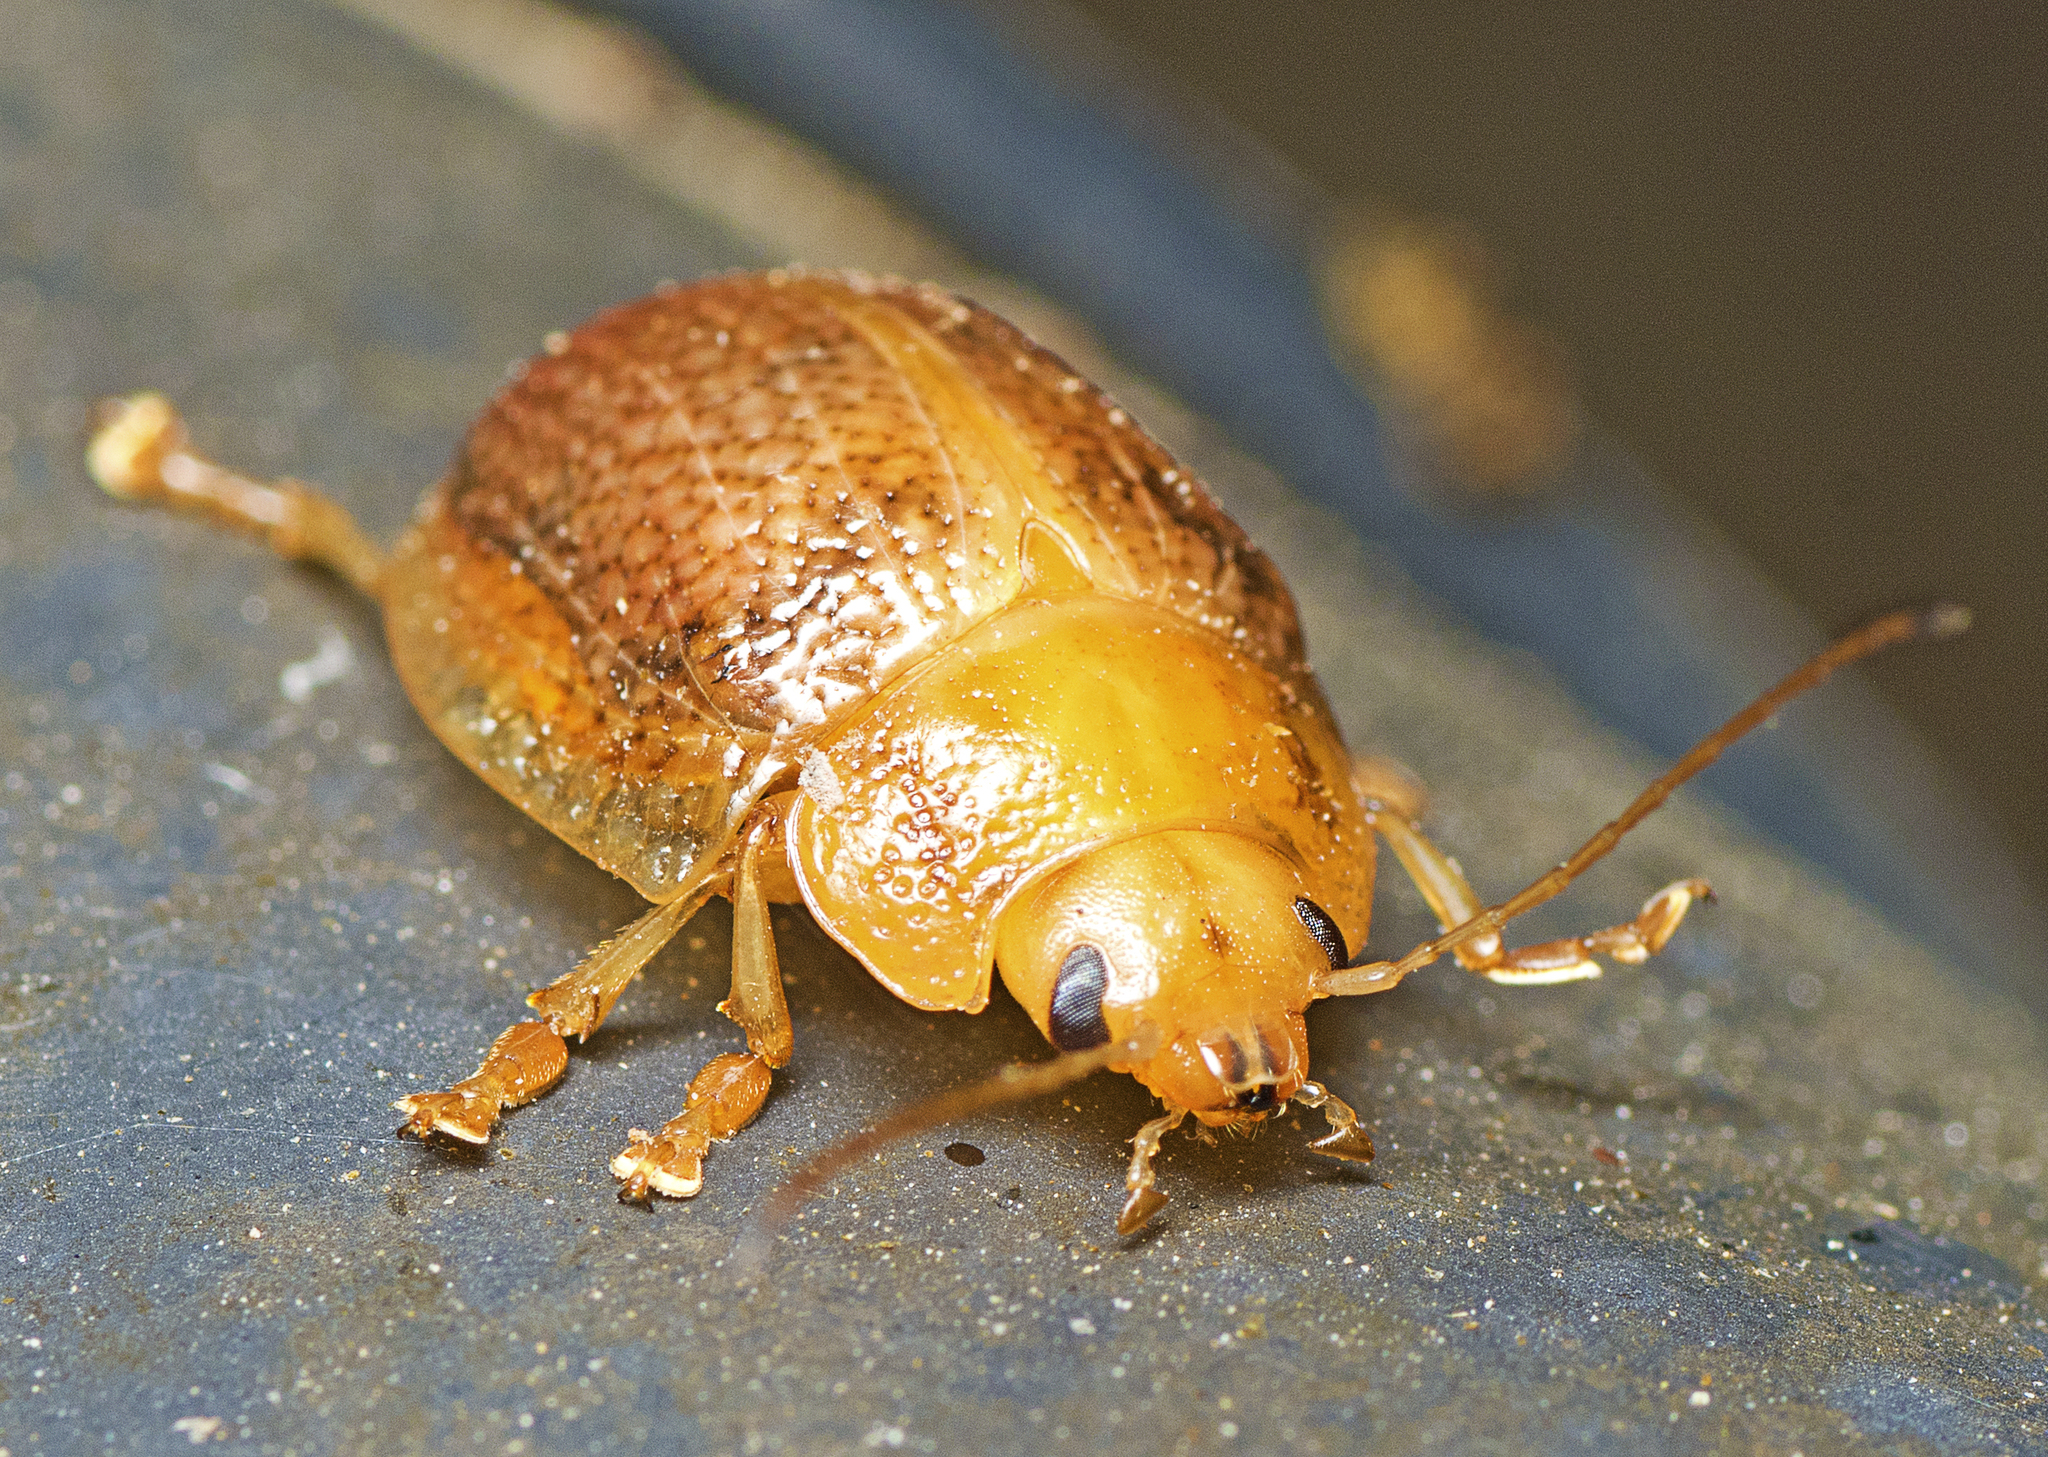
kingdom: Animalia
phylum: Arthropoda
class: Insecta
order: Coleoptera
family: Chrysomelidae
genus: Paropsis
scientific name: Paropsis
